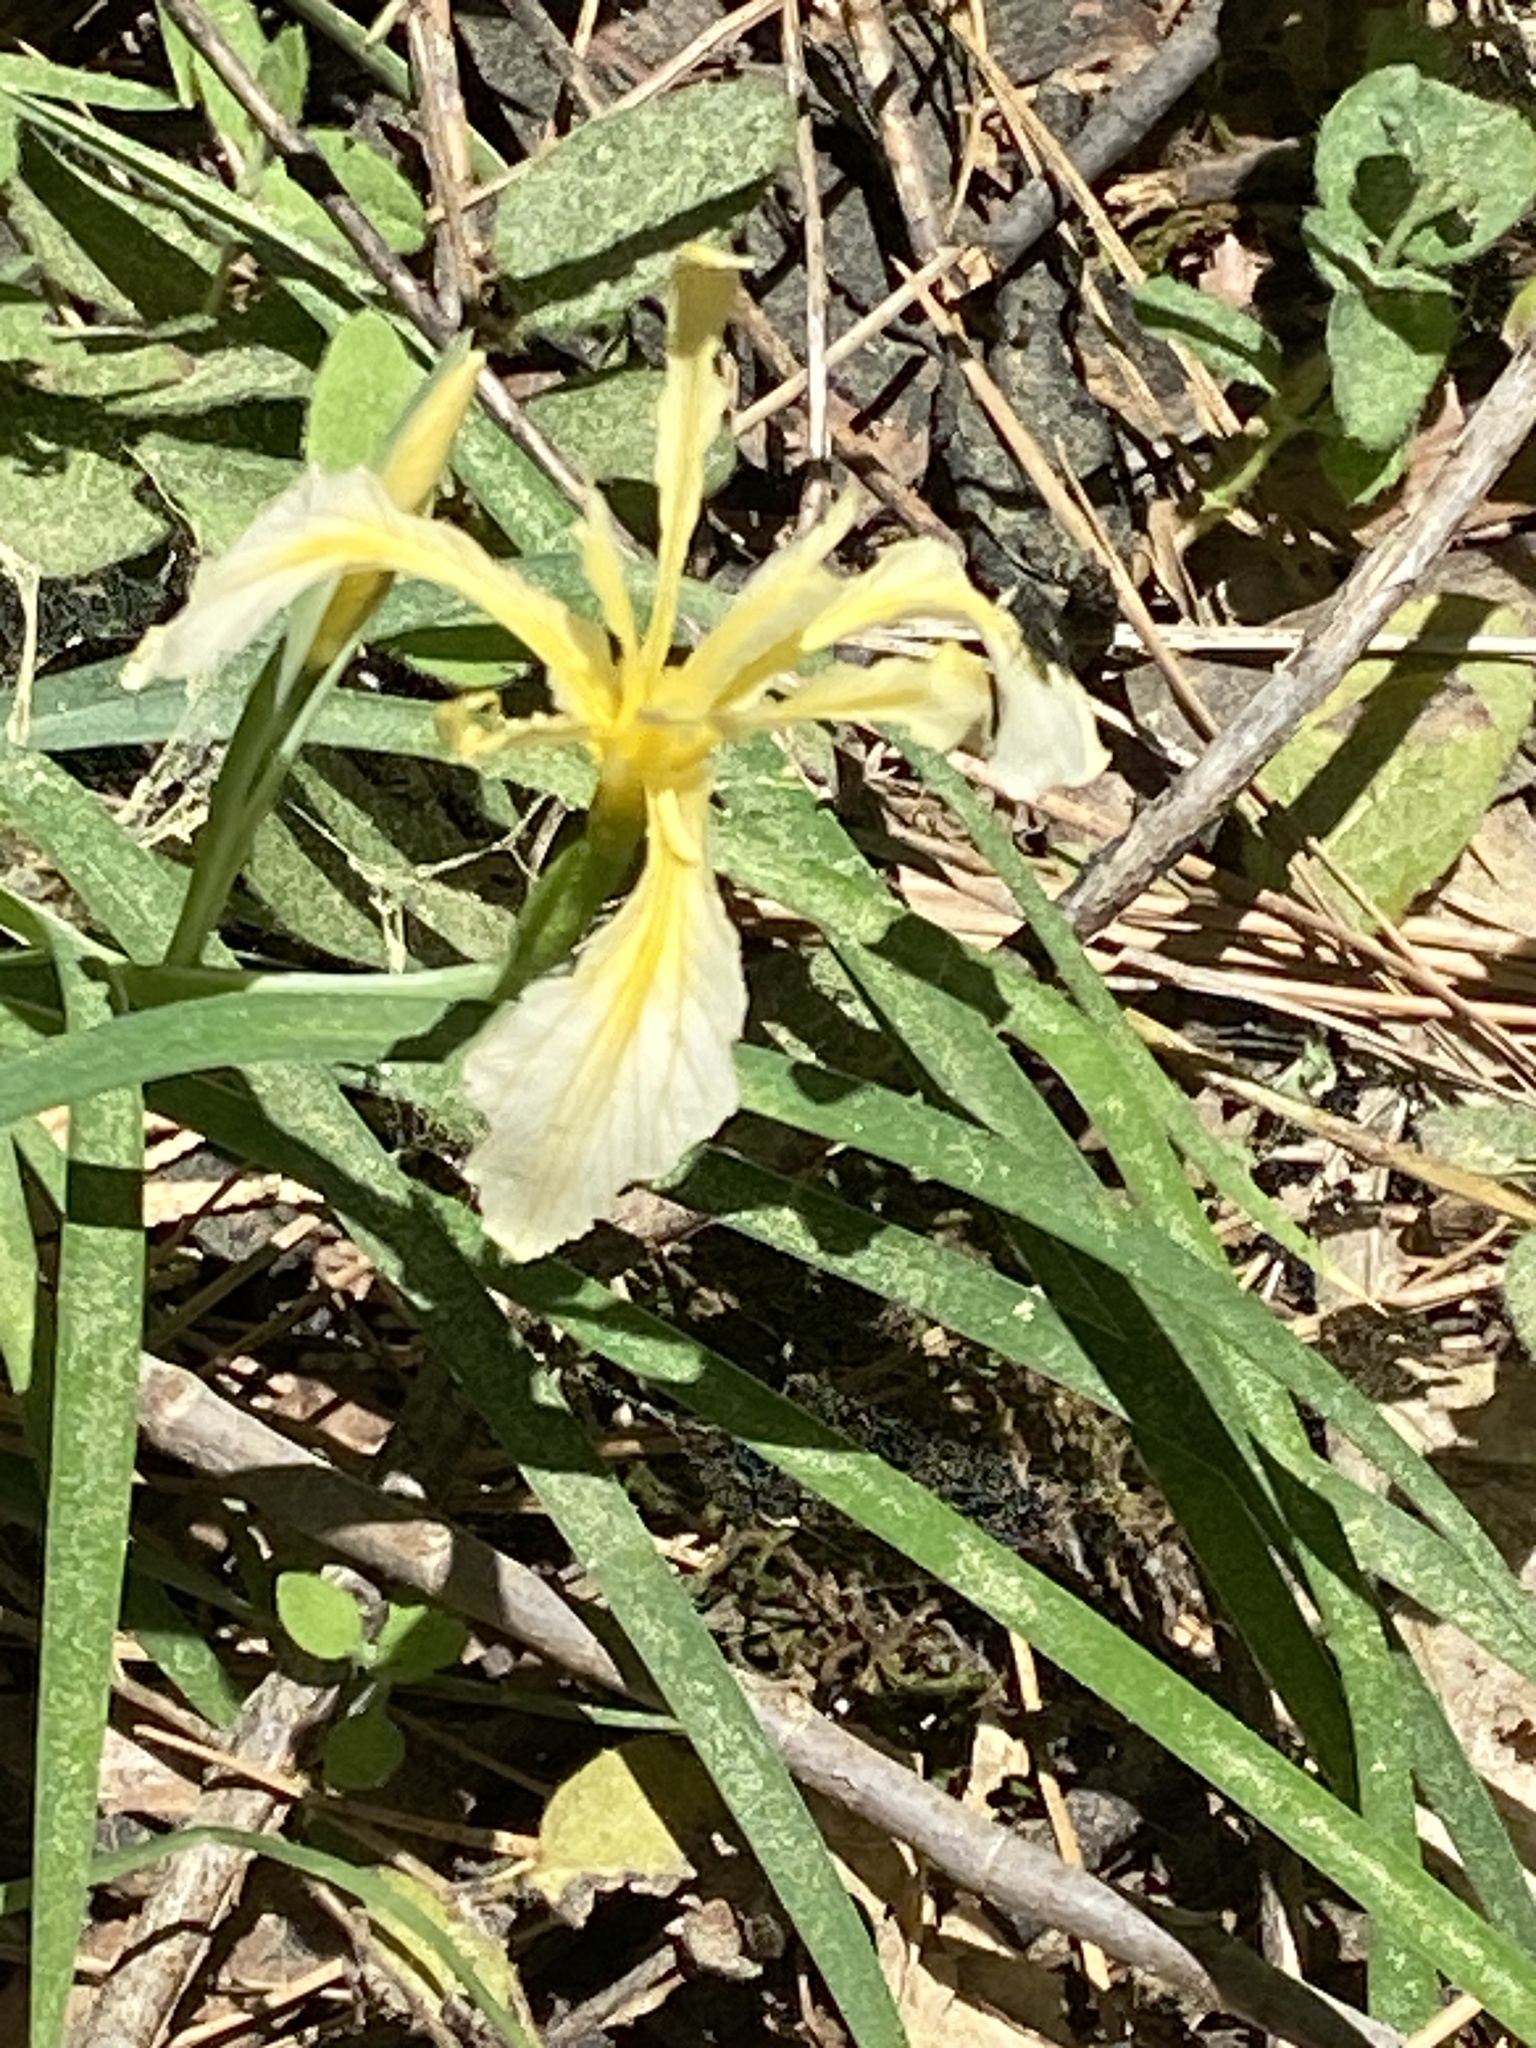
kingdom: Plantae
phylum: Tracheophyta
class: Liliopsida
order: Asparagales
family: Iridaceae
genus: Iris
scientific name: Iris hartwegii
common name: Sierra iris
